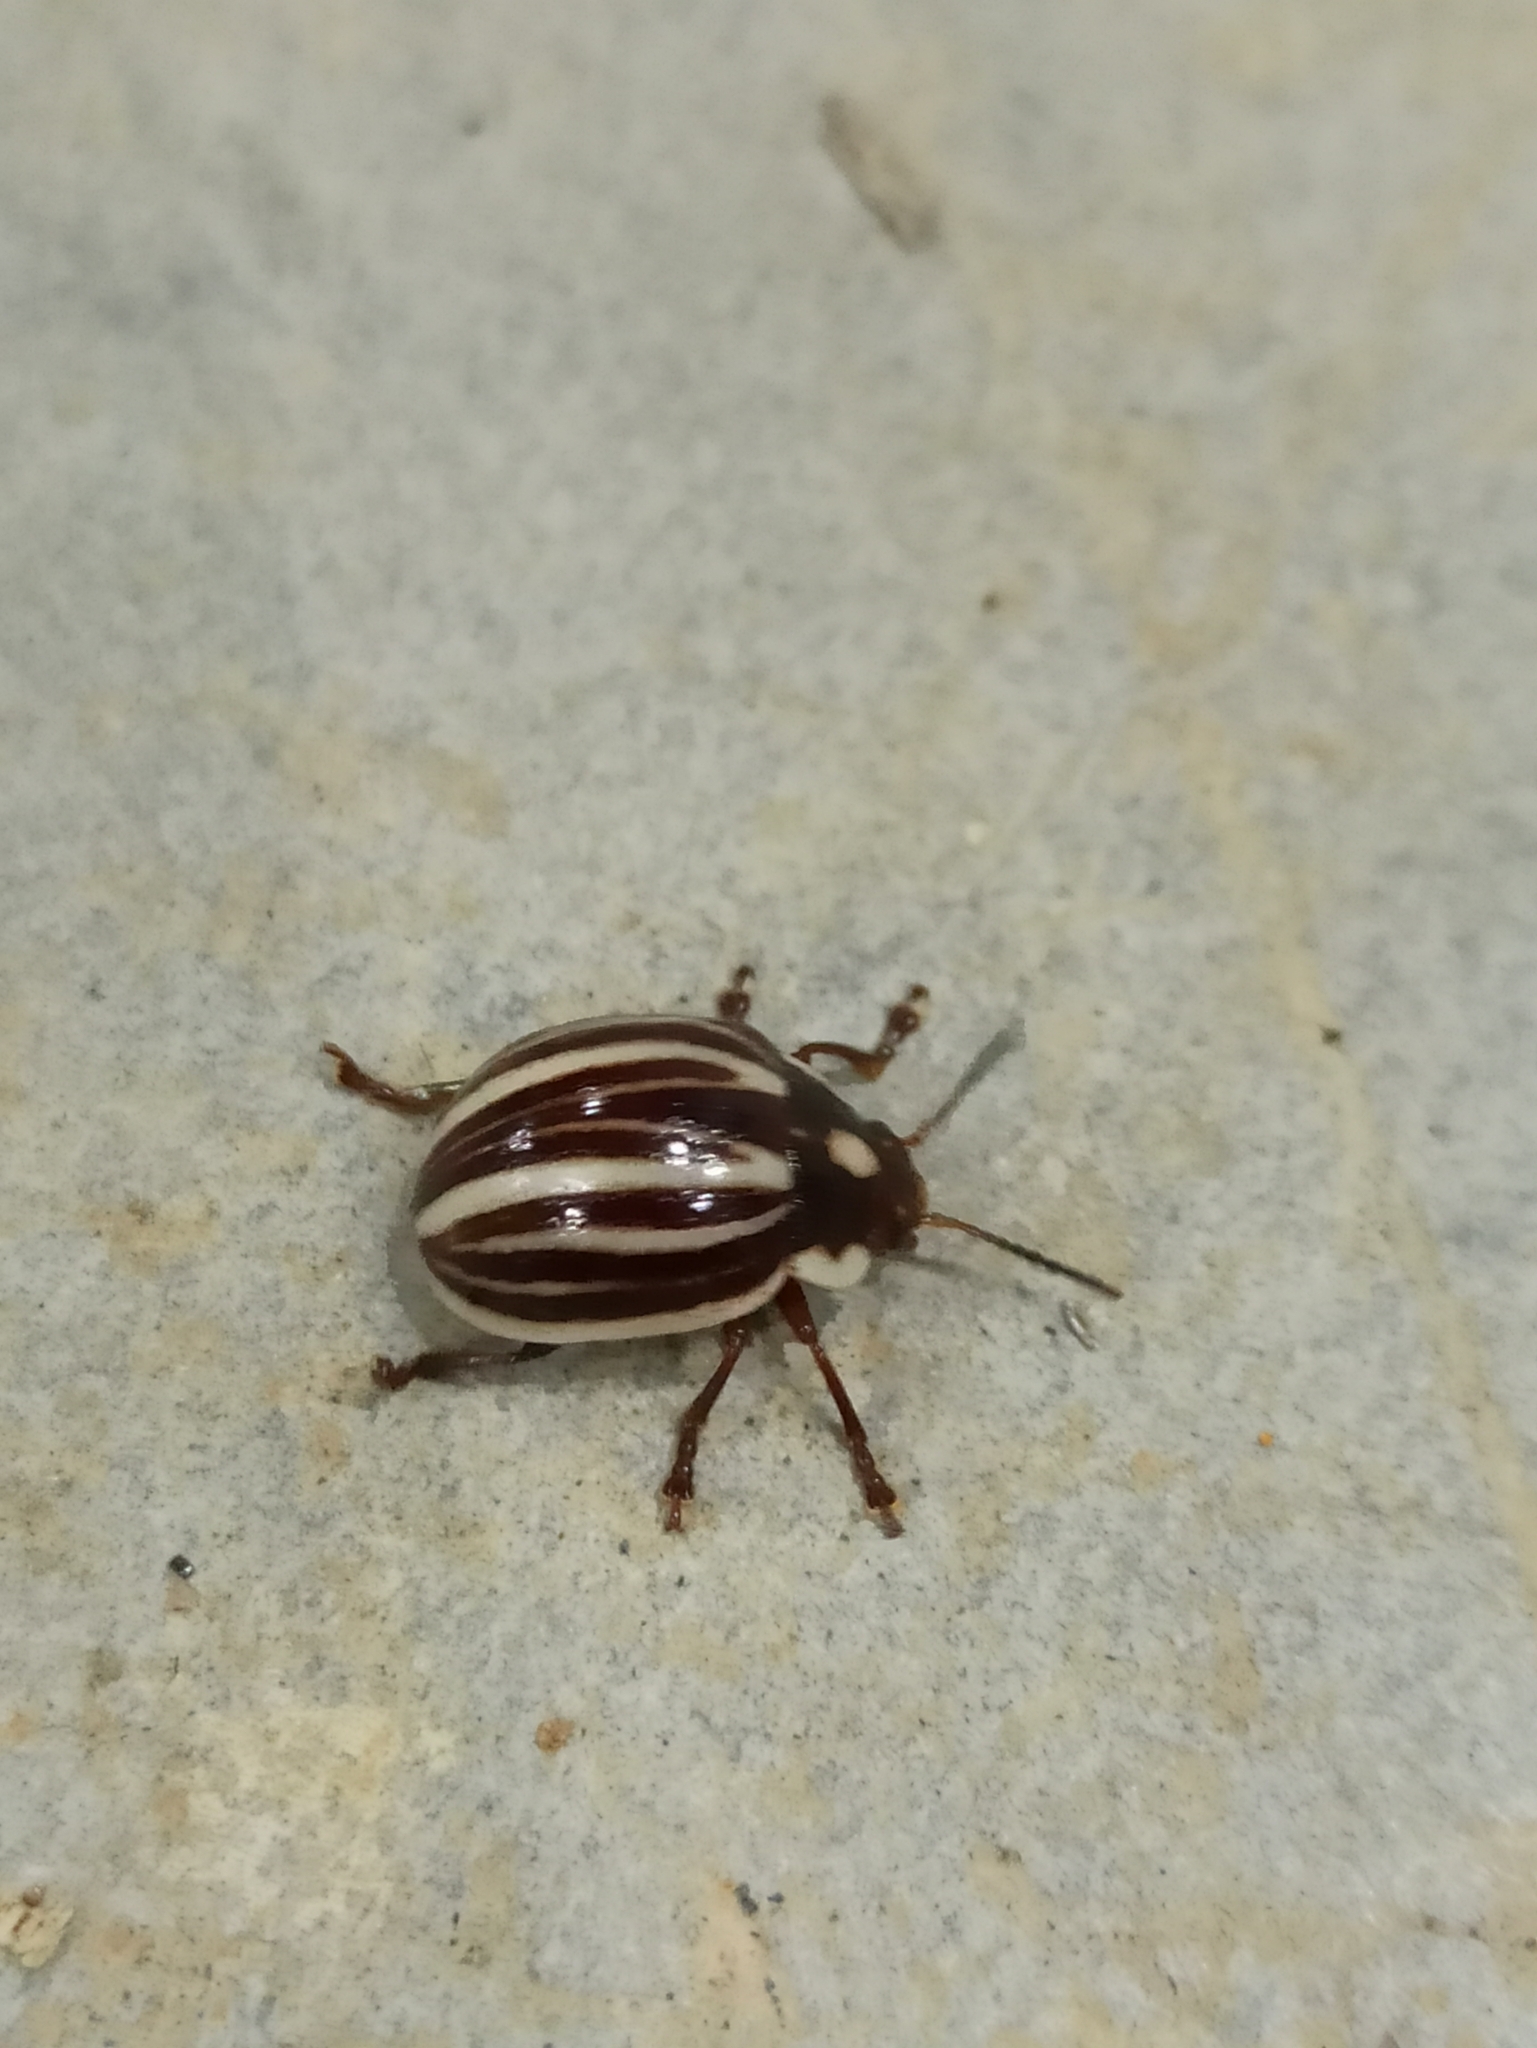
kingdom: Animalia
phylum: Arthropoda
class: Insecta
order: Coleoptera
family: Chrysomelidae
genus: Platyphora
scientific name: Platyphora
